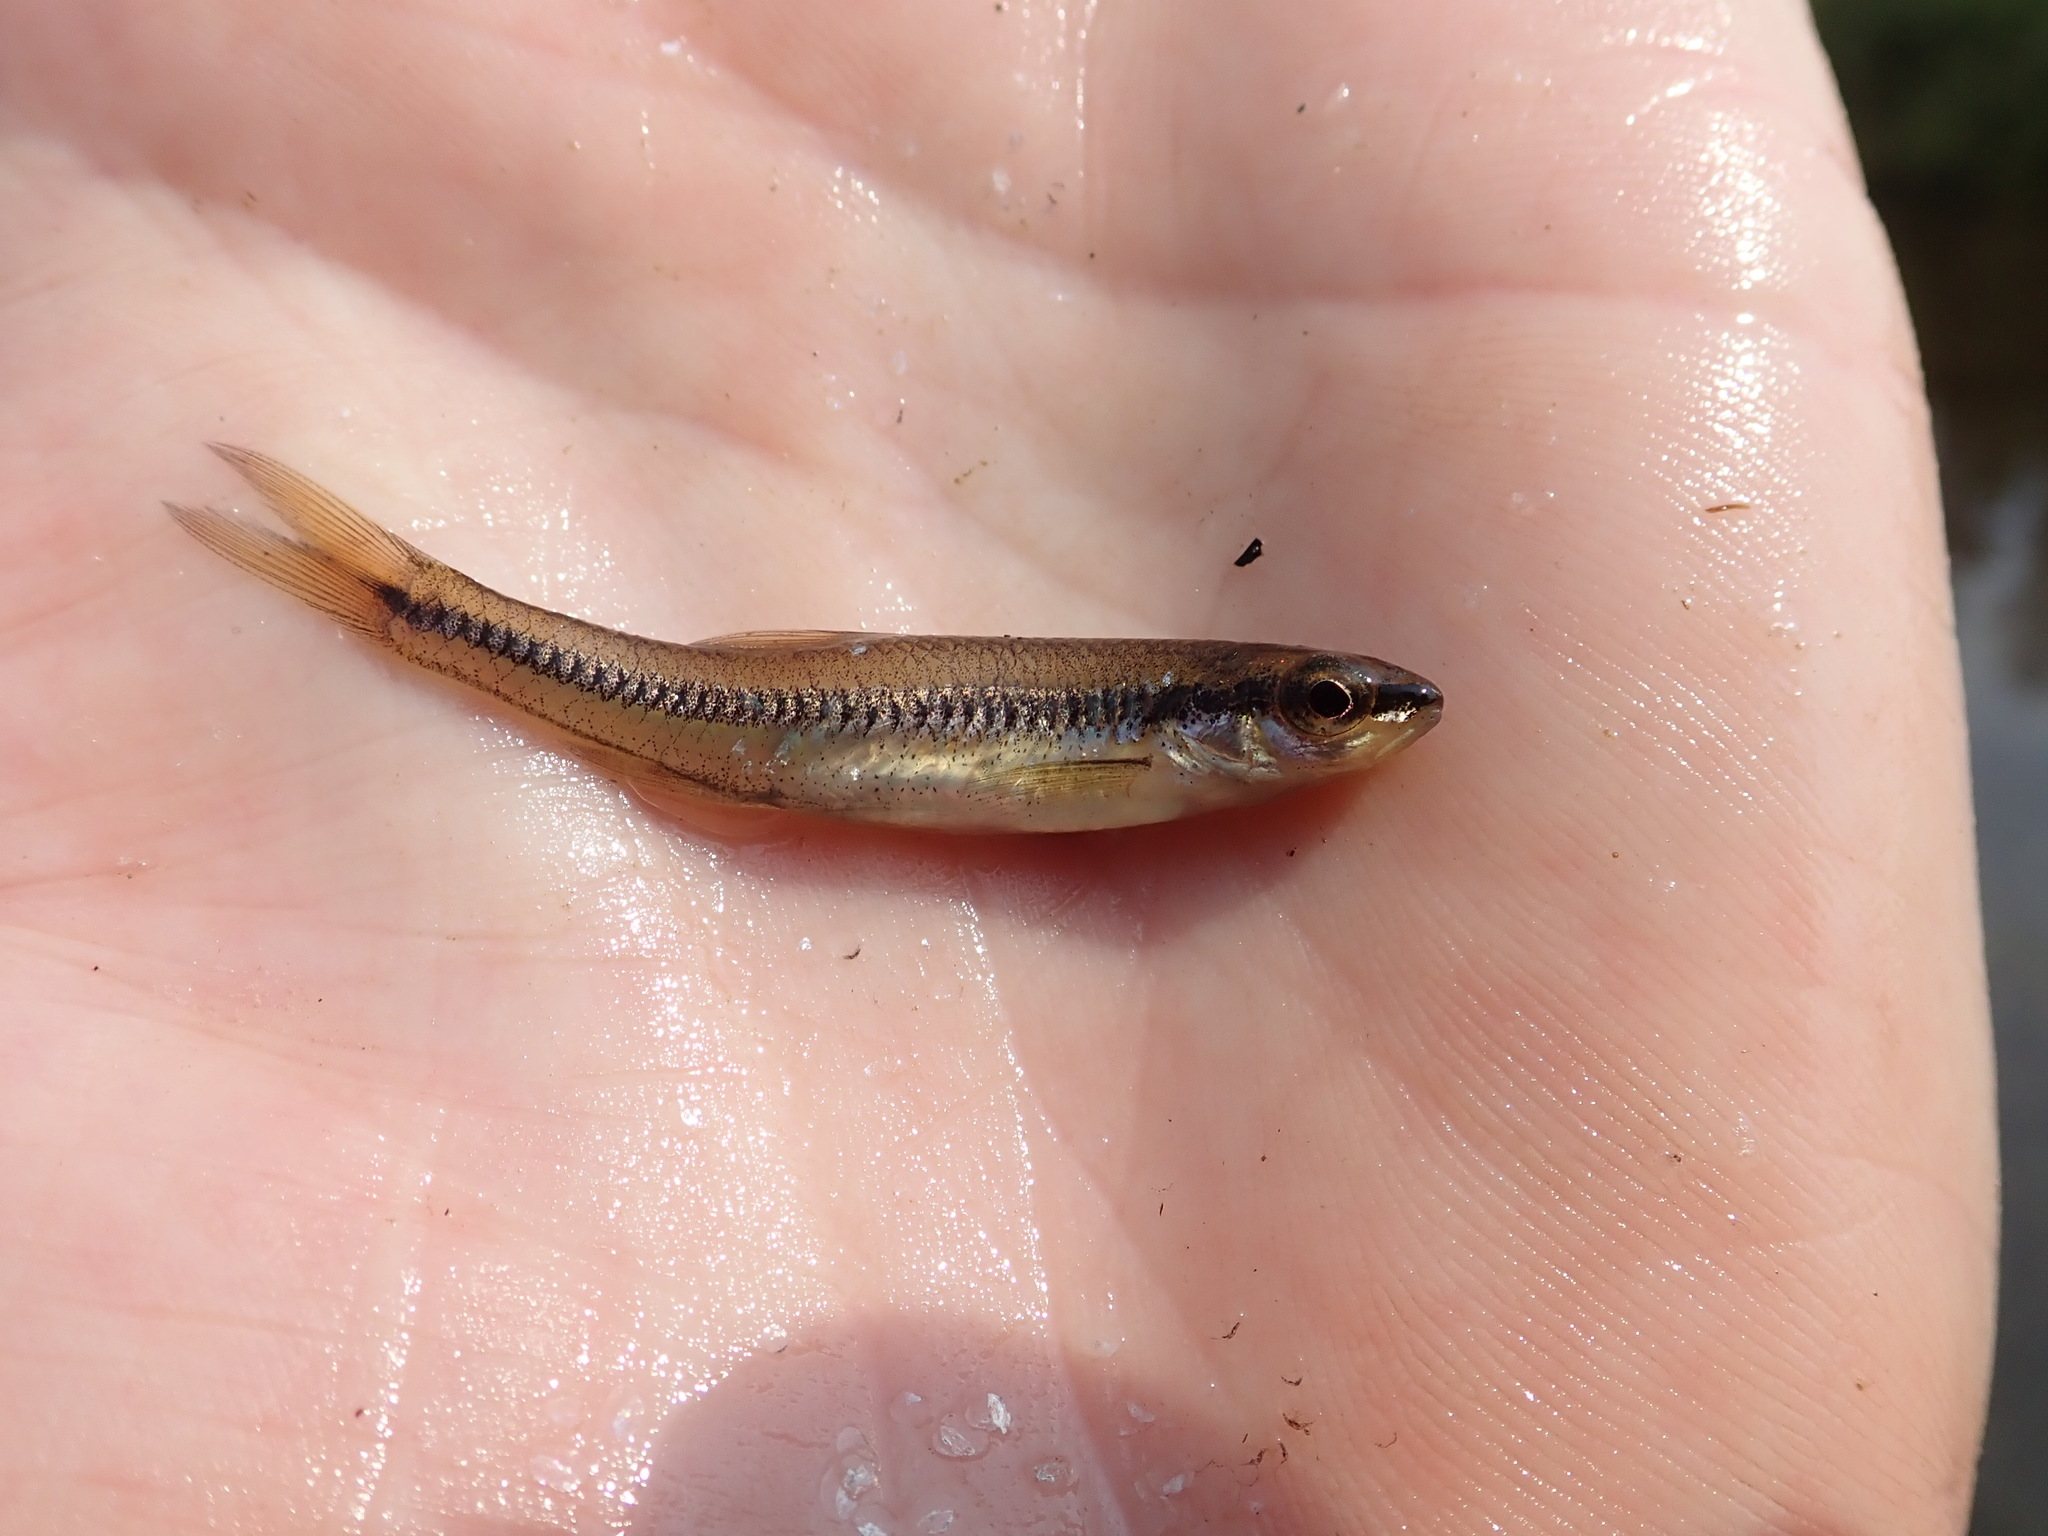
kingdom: Animalia
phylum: Chordata
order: Cypriniformes
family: Cyprinidae
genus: Notropis
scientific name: Notropis heterolepis
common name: Blacknose shiner
